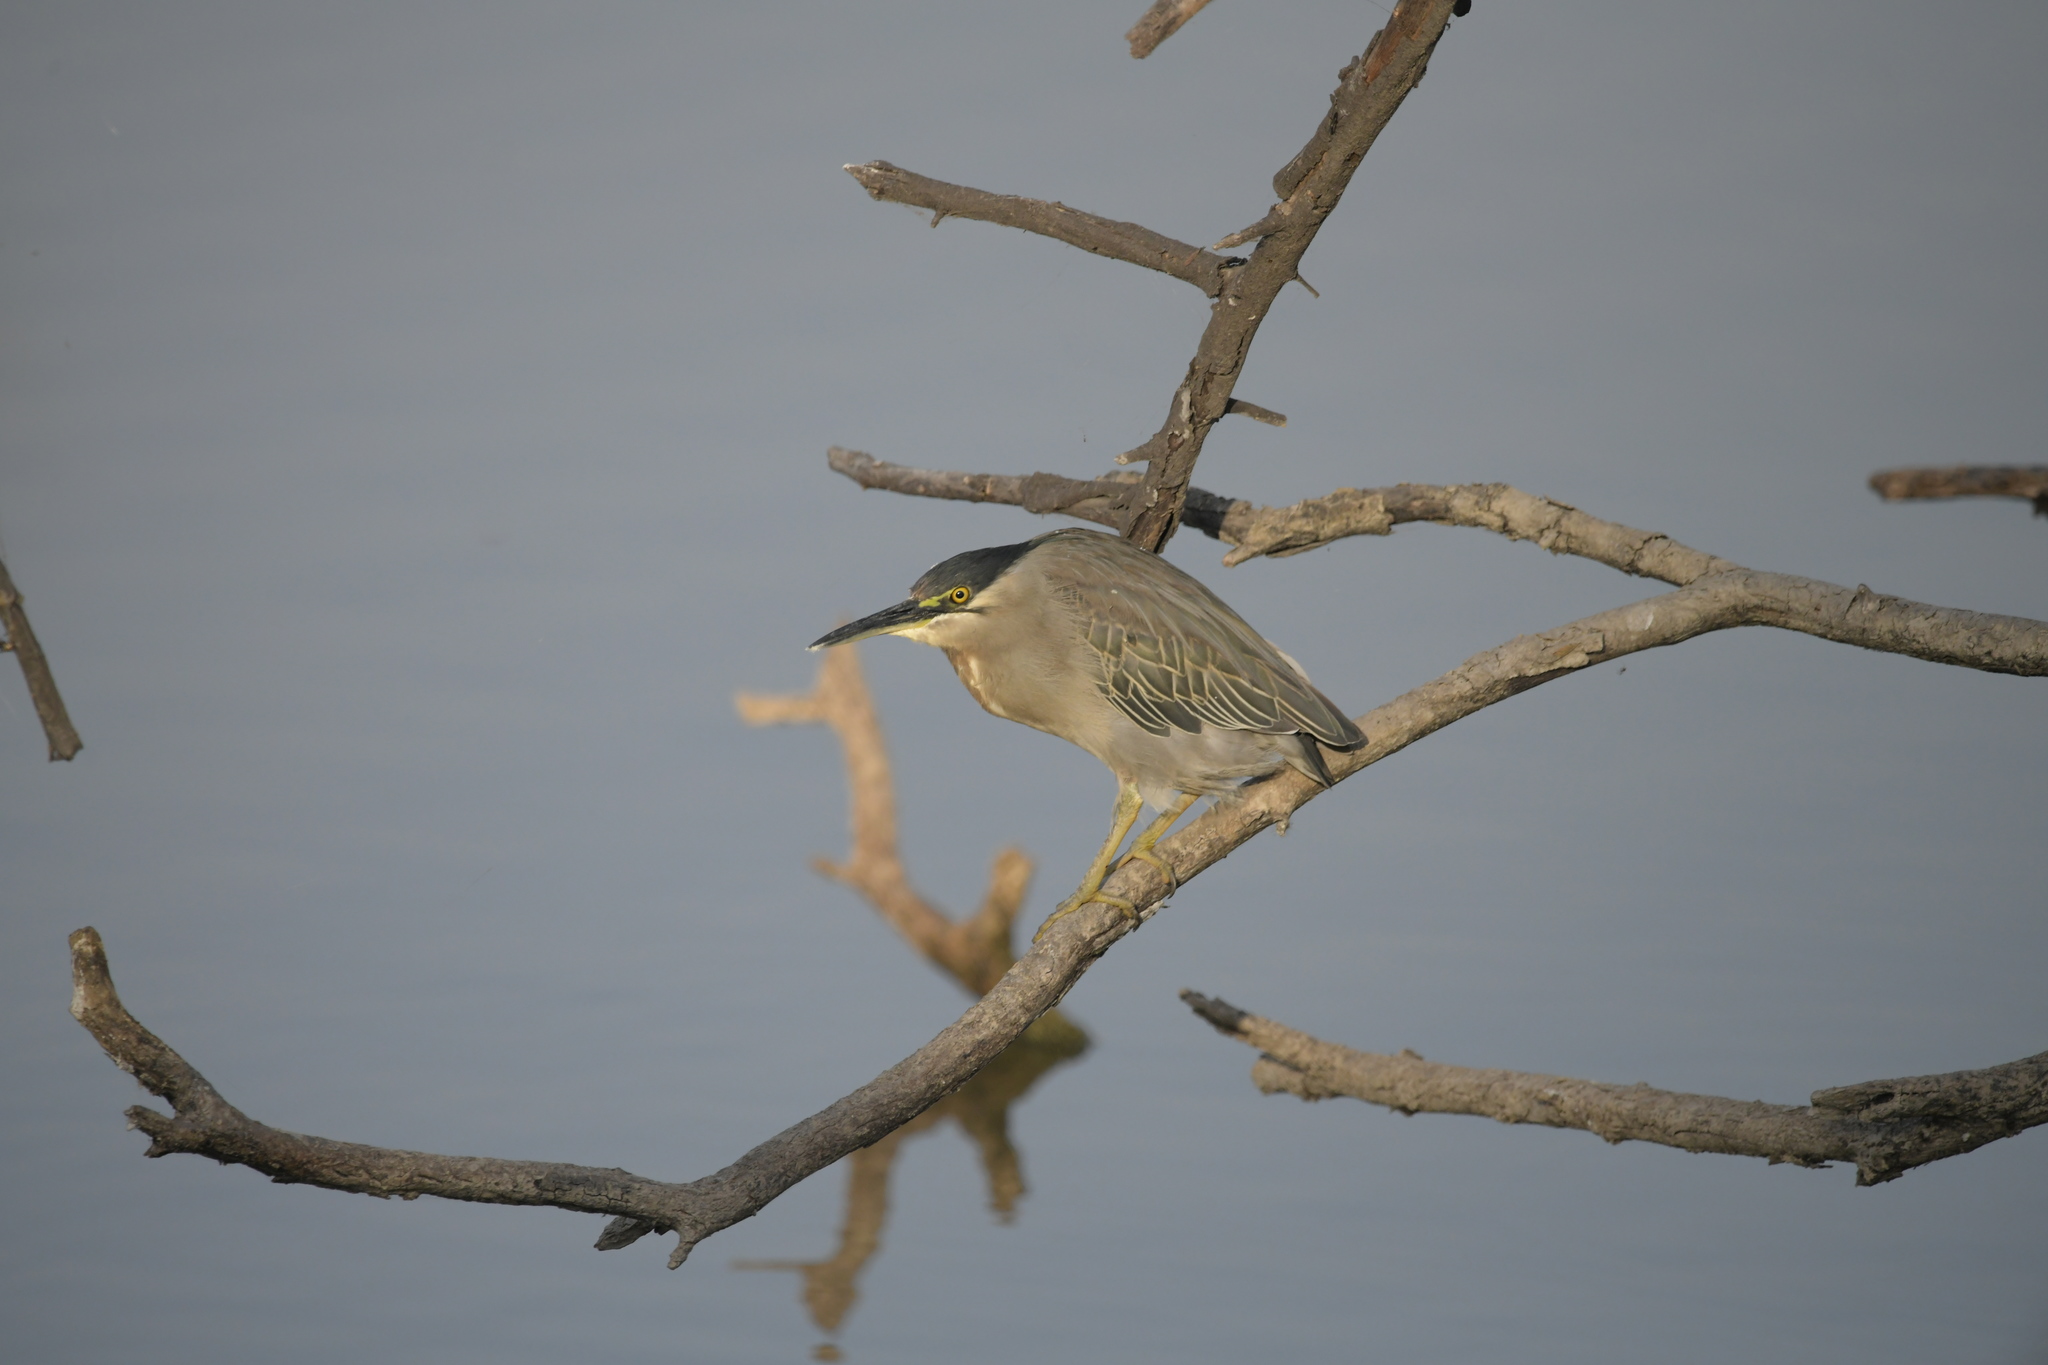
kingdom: Animalia
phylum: Chordata
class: Aves
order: Pelecaniformes
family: Ardeidae
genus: Butorides
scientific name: Butorides striata
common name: Striated heron
